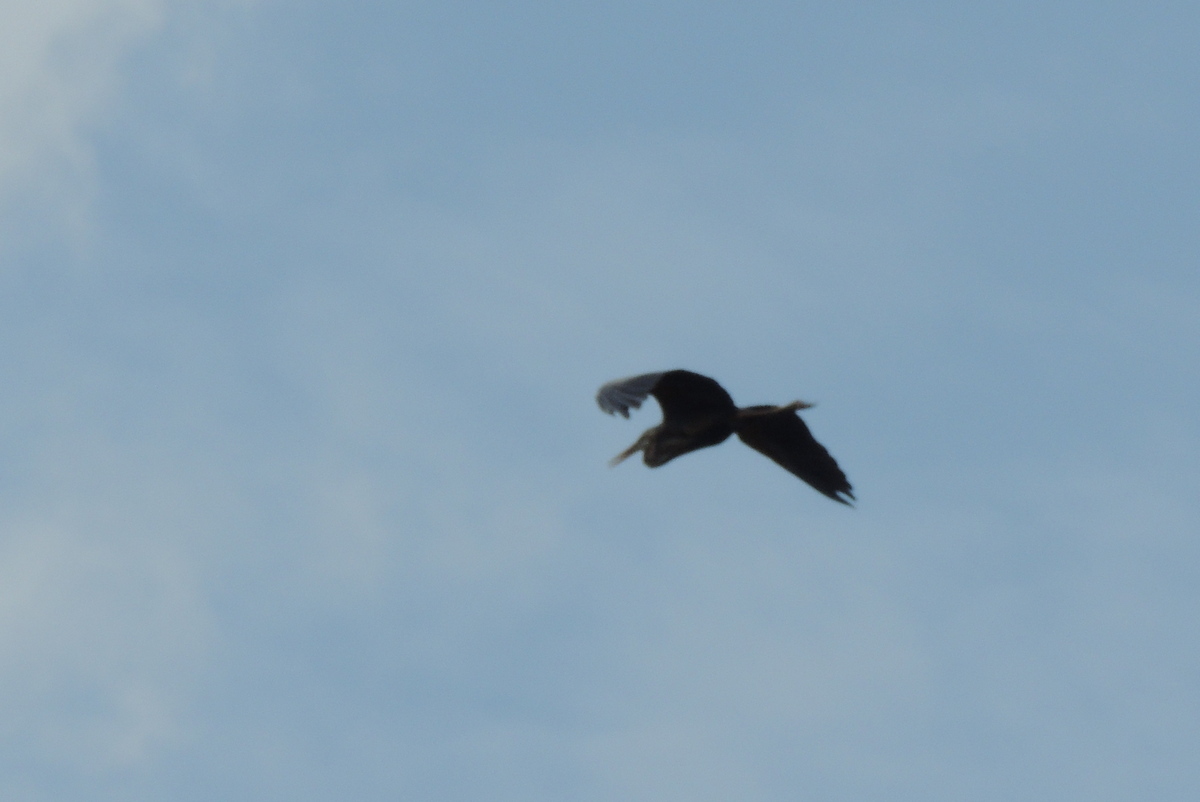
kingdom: Animalia
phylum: Chordata
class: Aves
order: Pelecaniformes
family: Ardeidae
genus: Ardea
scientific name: Ardea purpurea
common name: Purple heron
